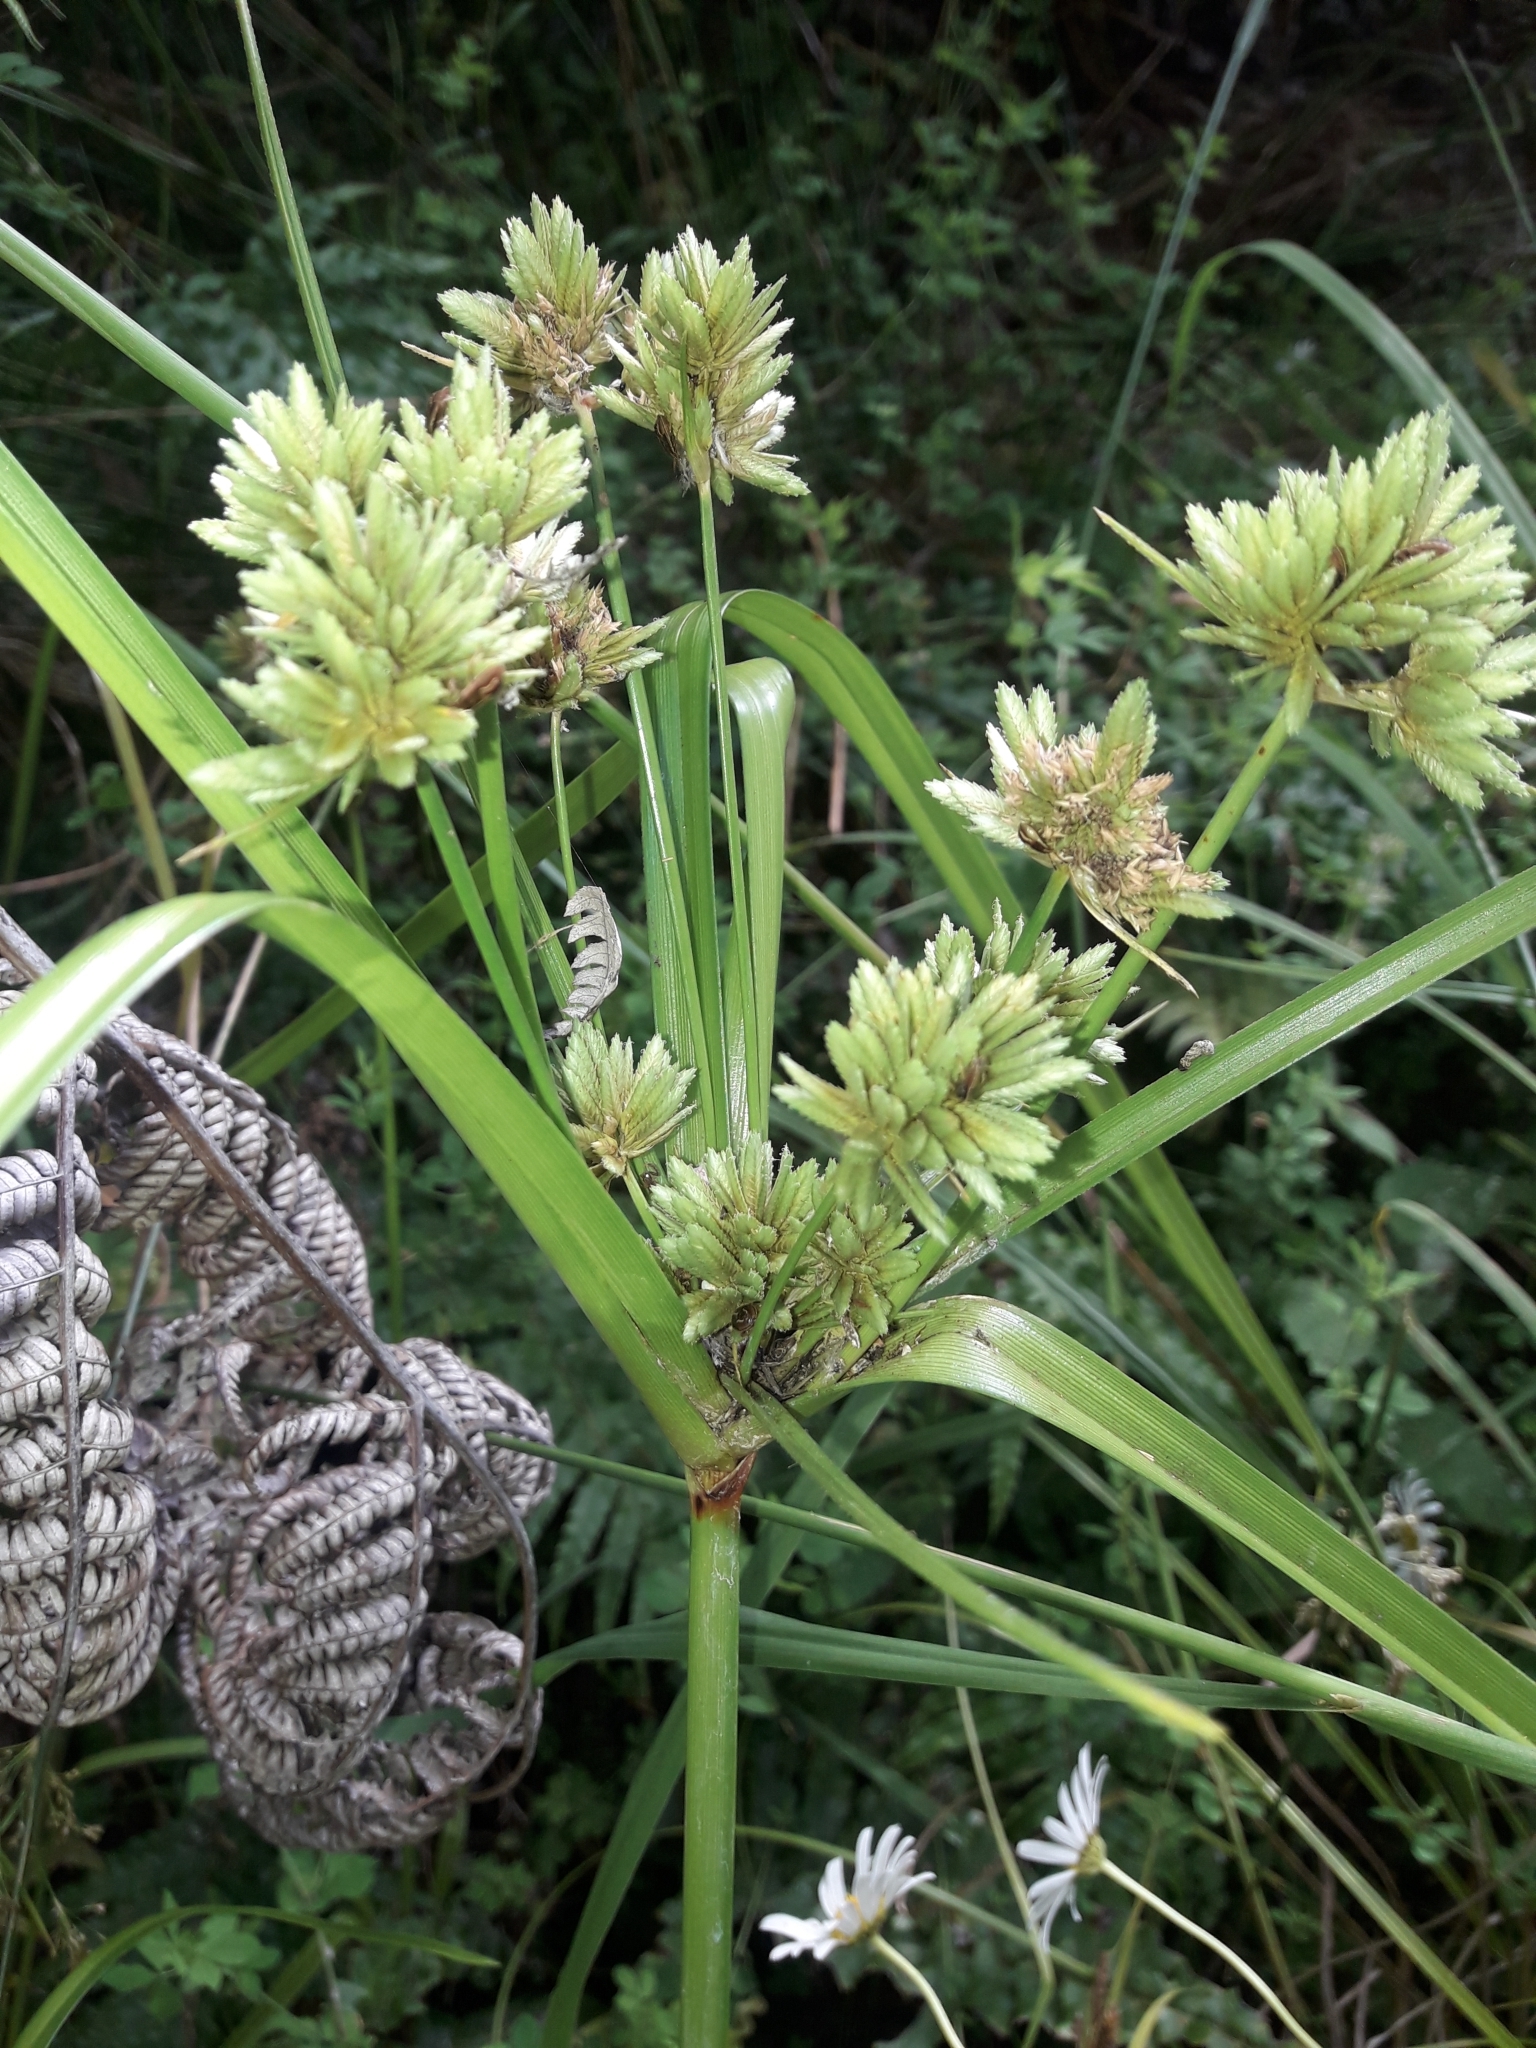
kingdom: Plantae
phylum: Tracheophyta
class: Liliopsida
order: Poales
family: Cyperaceae
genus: Cyperus
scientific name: Cyperus eragrostis
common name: Tall flatsedge
